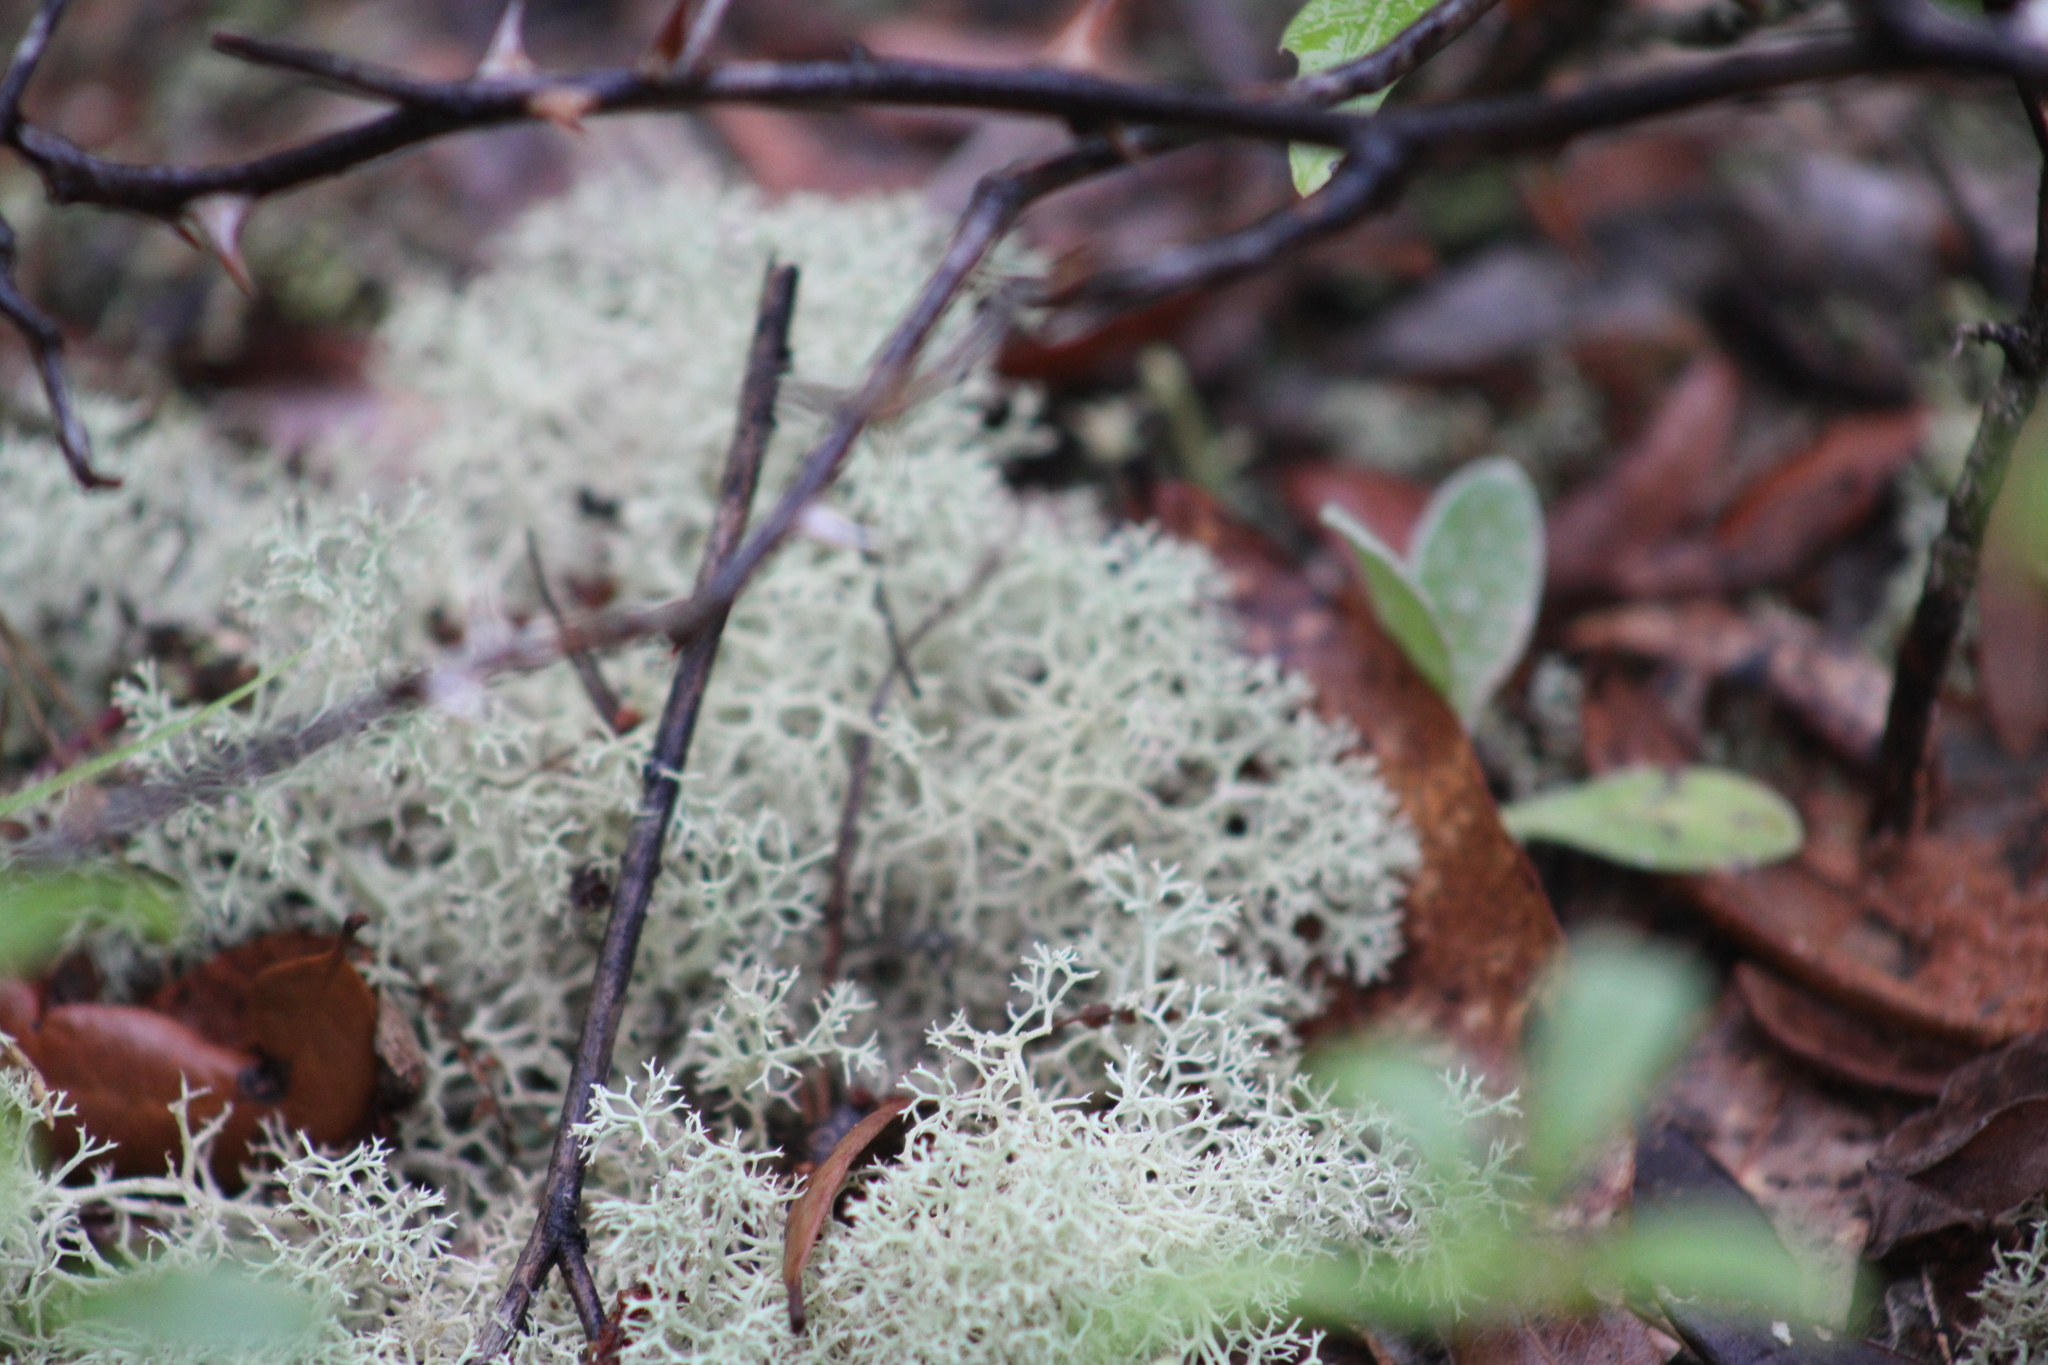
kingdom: Fungi
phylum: Ascomycota
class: Lecanoromycetes
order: Lecanorales
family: Cladoniaceae
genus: Cladonia
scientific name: Cladonia evansii
